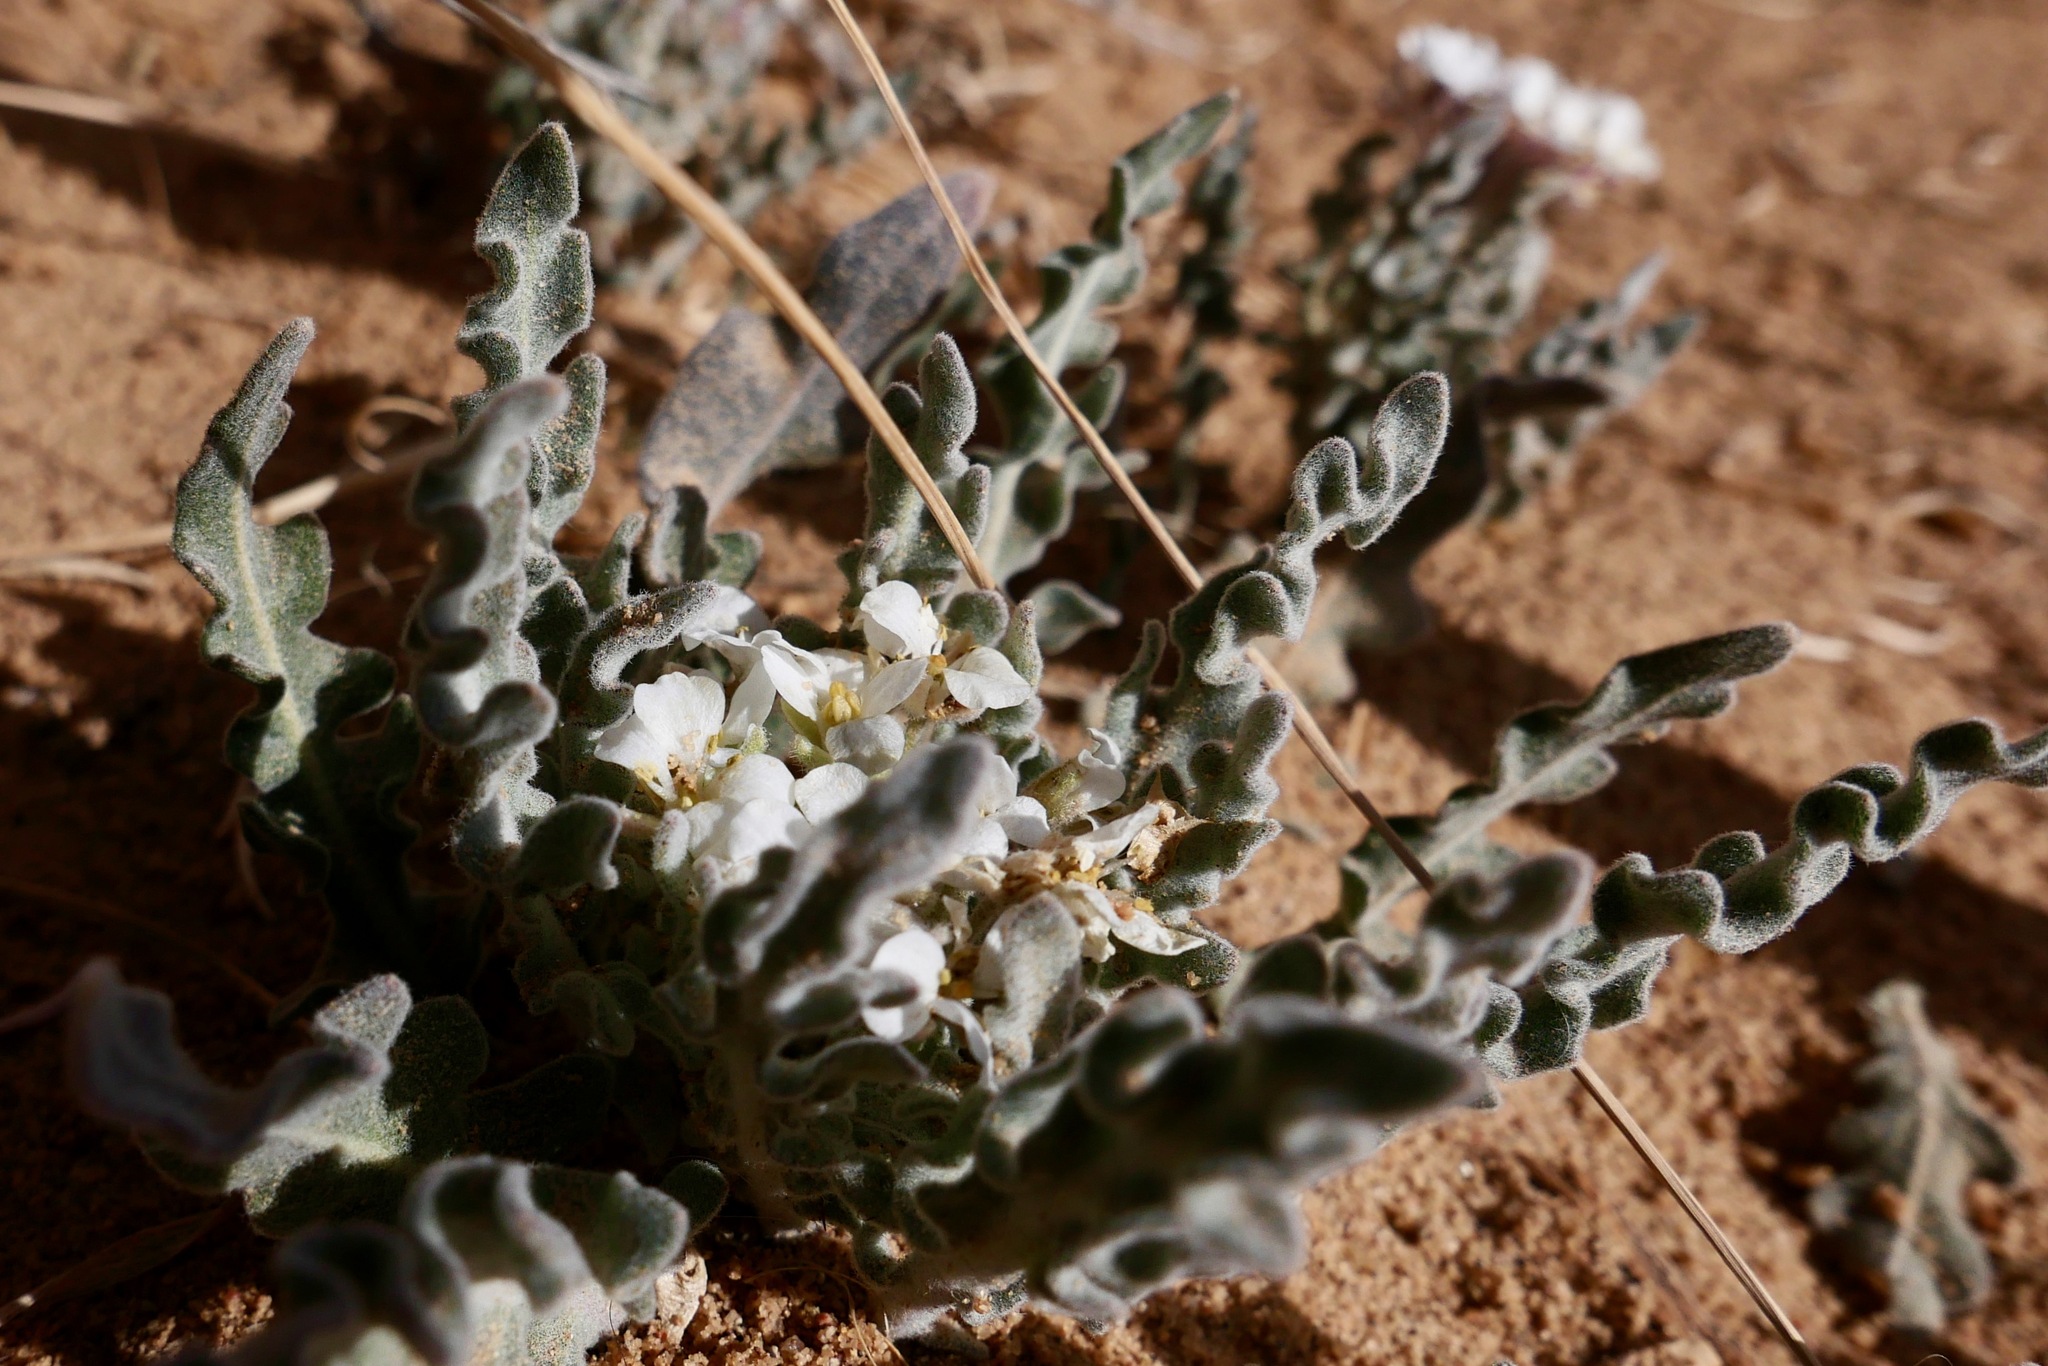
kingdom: Plantae
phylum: Tracheophyta
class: Magnoliopsida
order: Brassicales
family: Brassicaceae
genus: Dimorphocarpa
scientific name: Dimorphocarpa wislizenii
